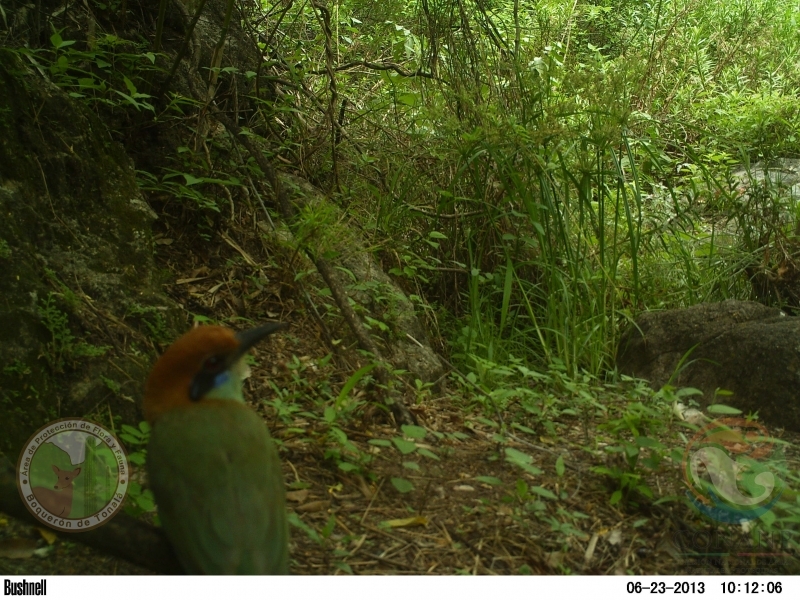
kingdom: Animalia
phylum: Chordata
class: Aves
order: Coraciiformes
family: Momotidae
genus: Momotus
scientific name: Momotus mexicanus
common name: Russet-crowned motmot
